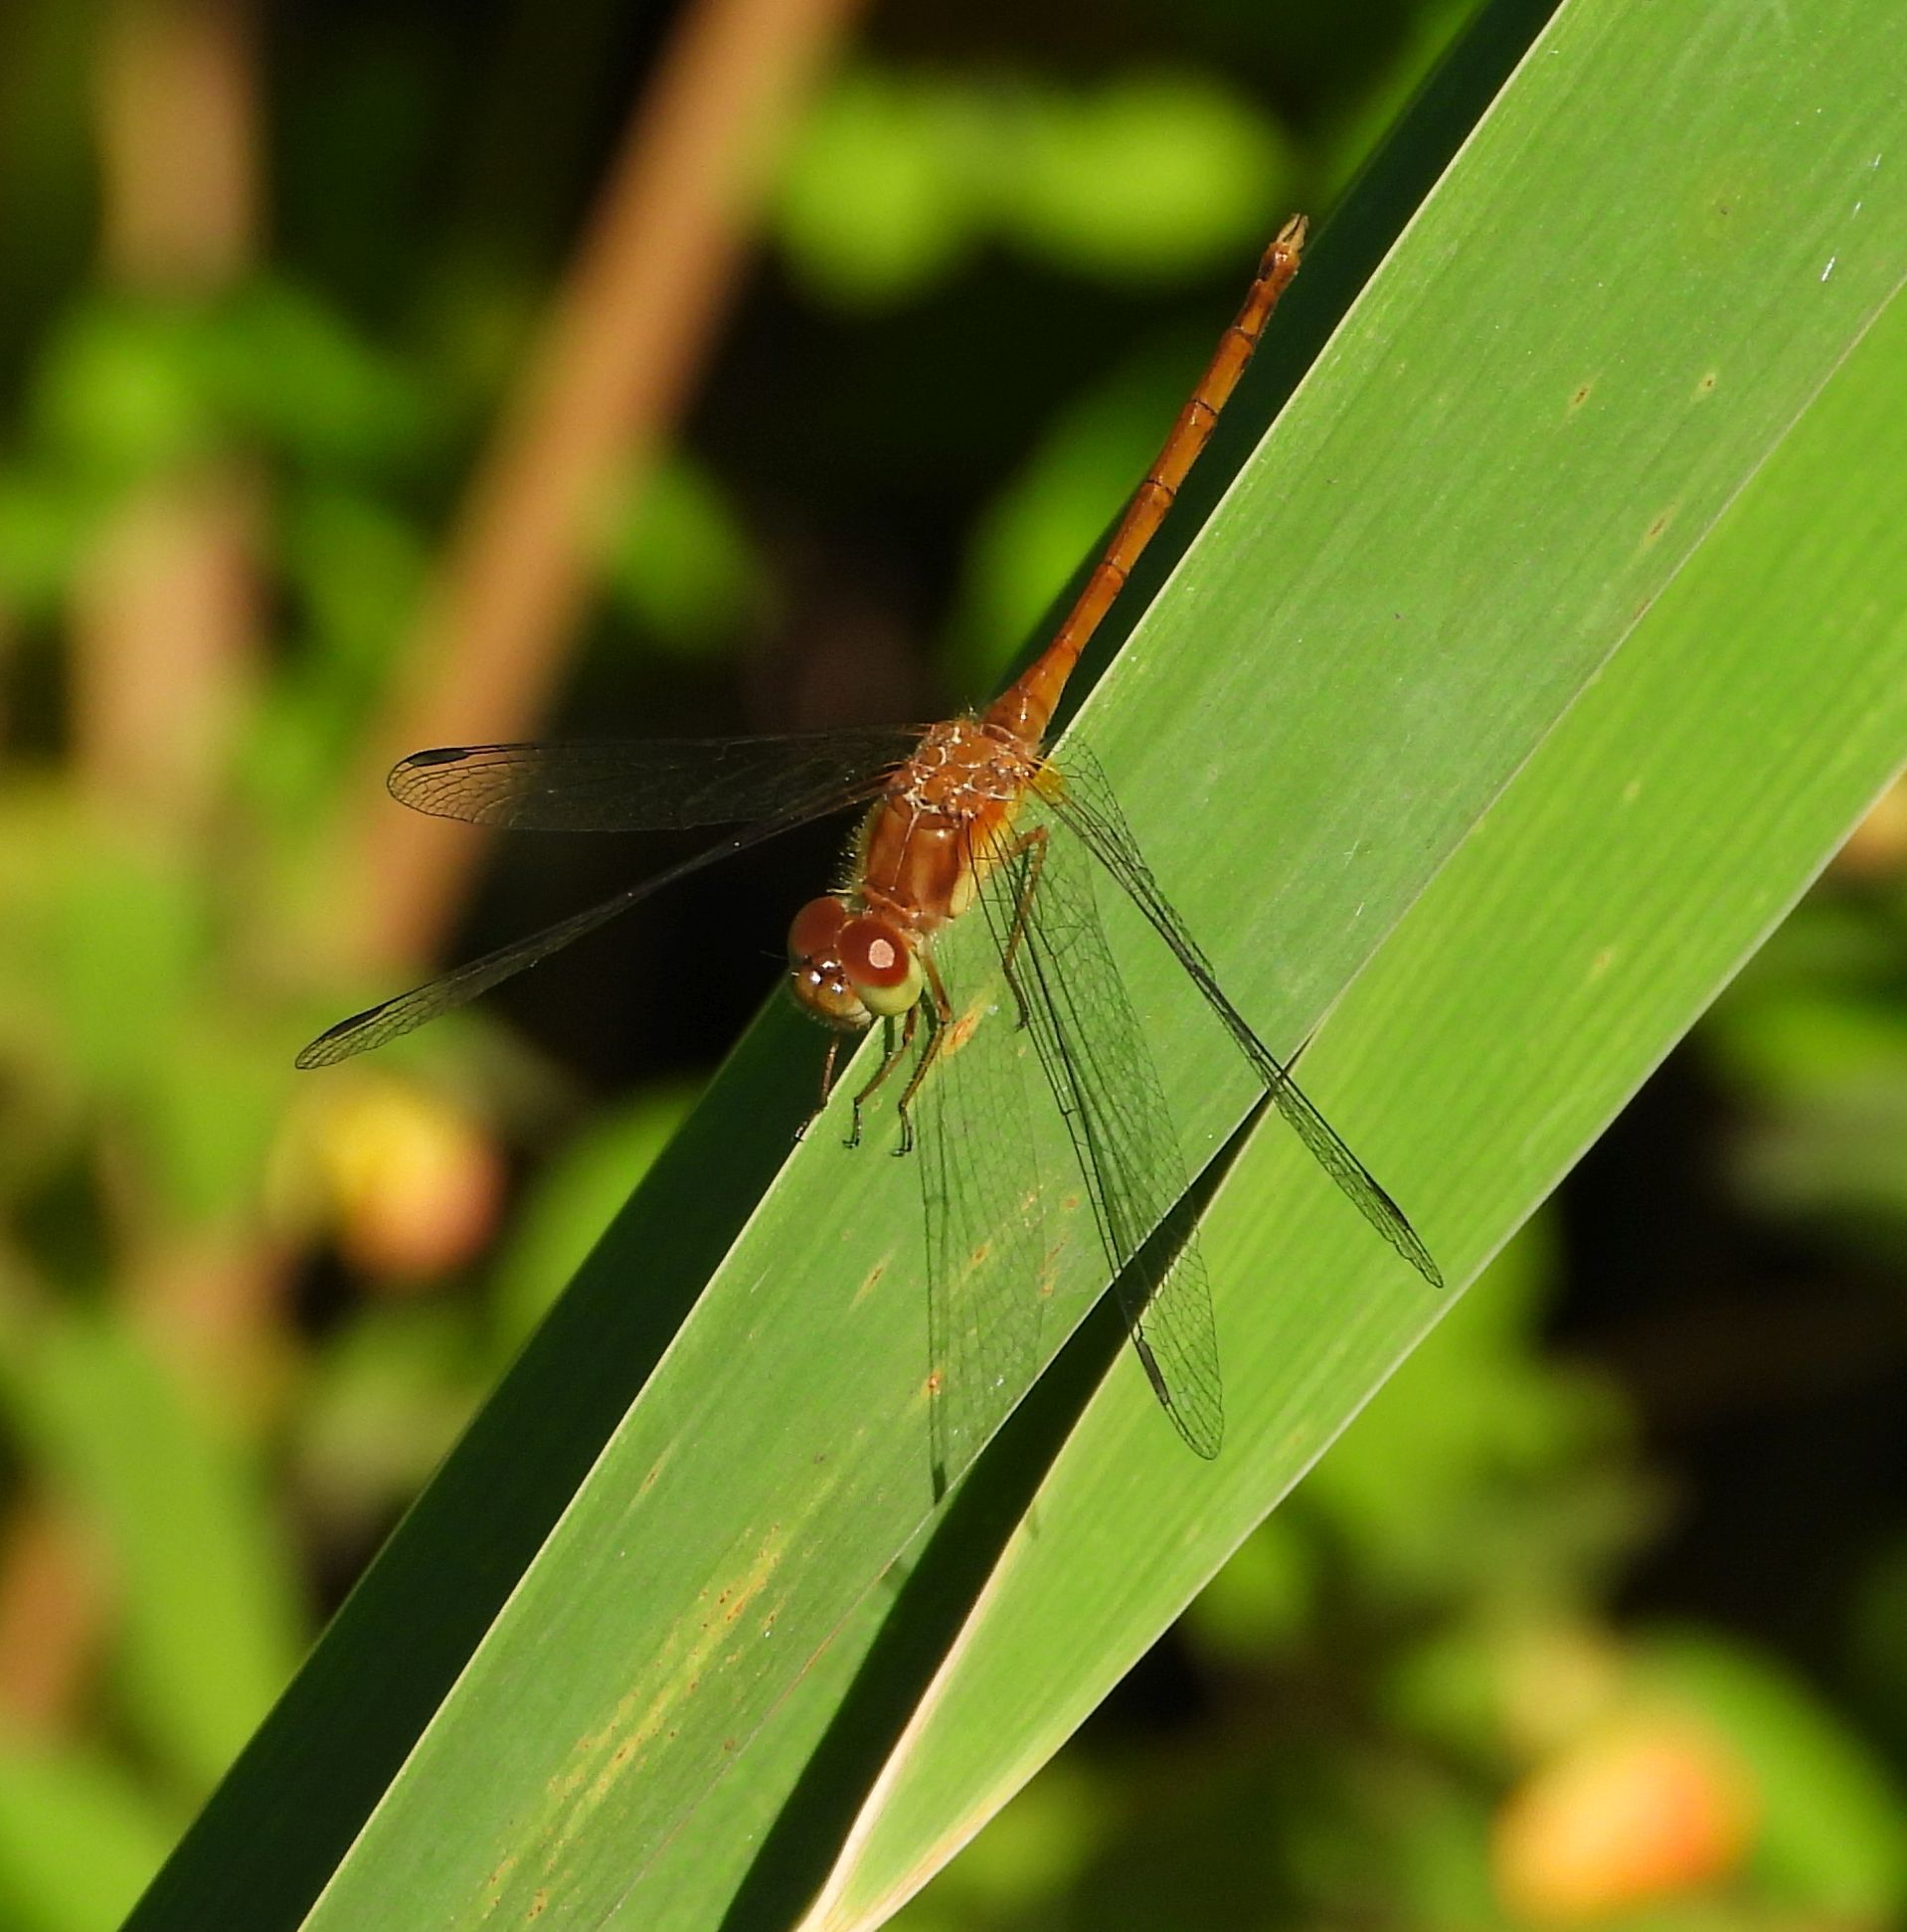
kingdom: Animalia
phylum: Arthropoda
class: Insecta
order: Odonata
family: Libellulidae
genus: Sympetrum
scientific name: Sympetrum vicinum
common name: Autumn meadowhawk
